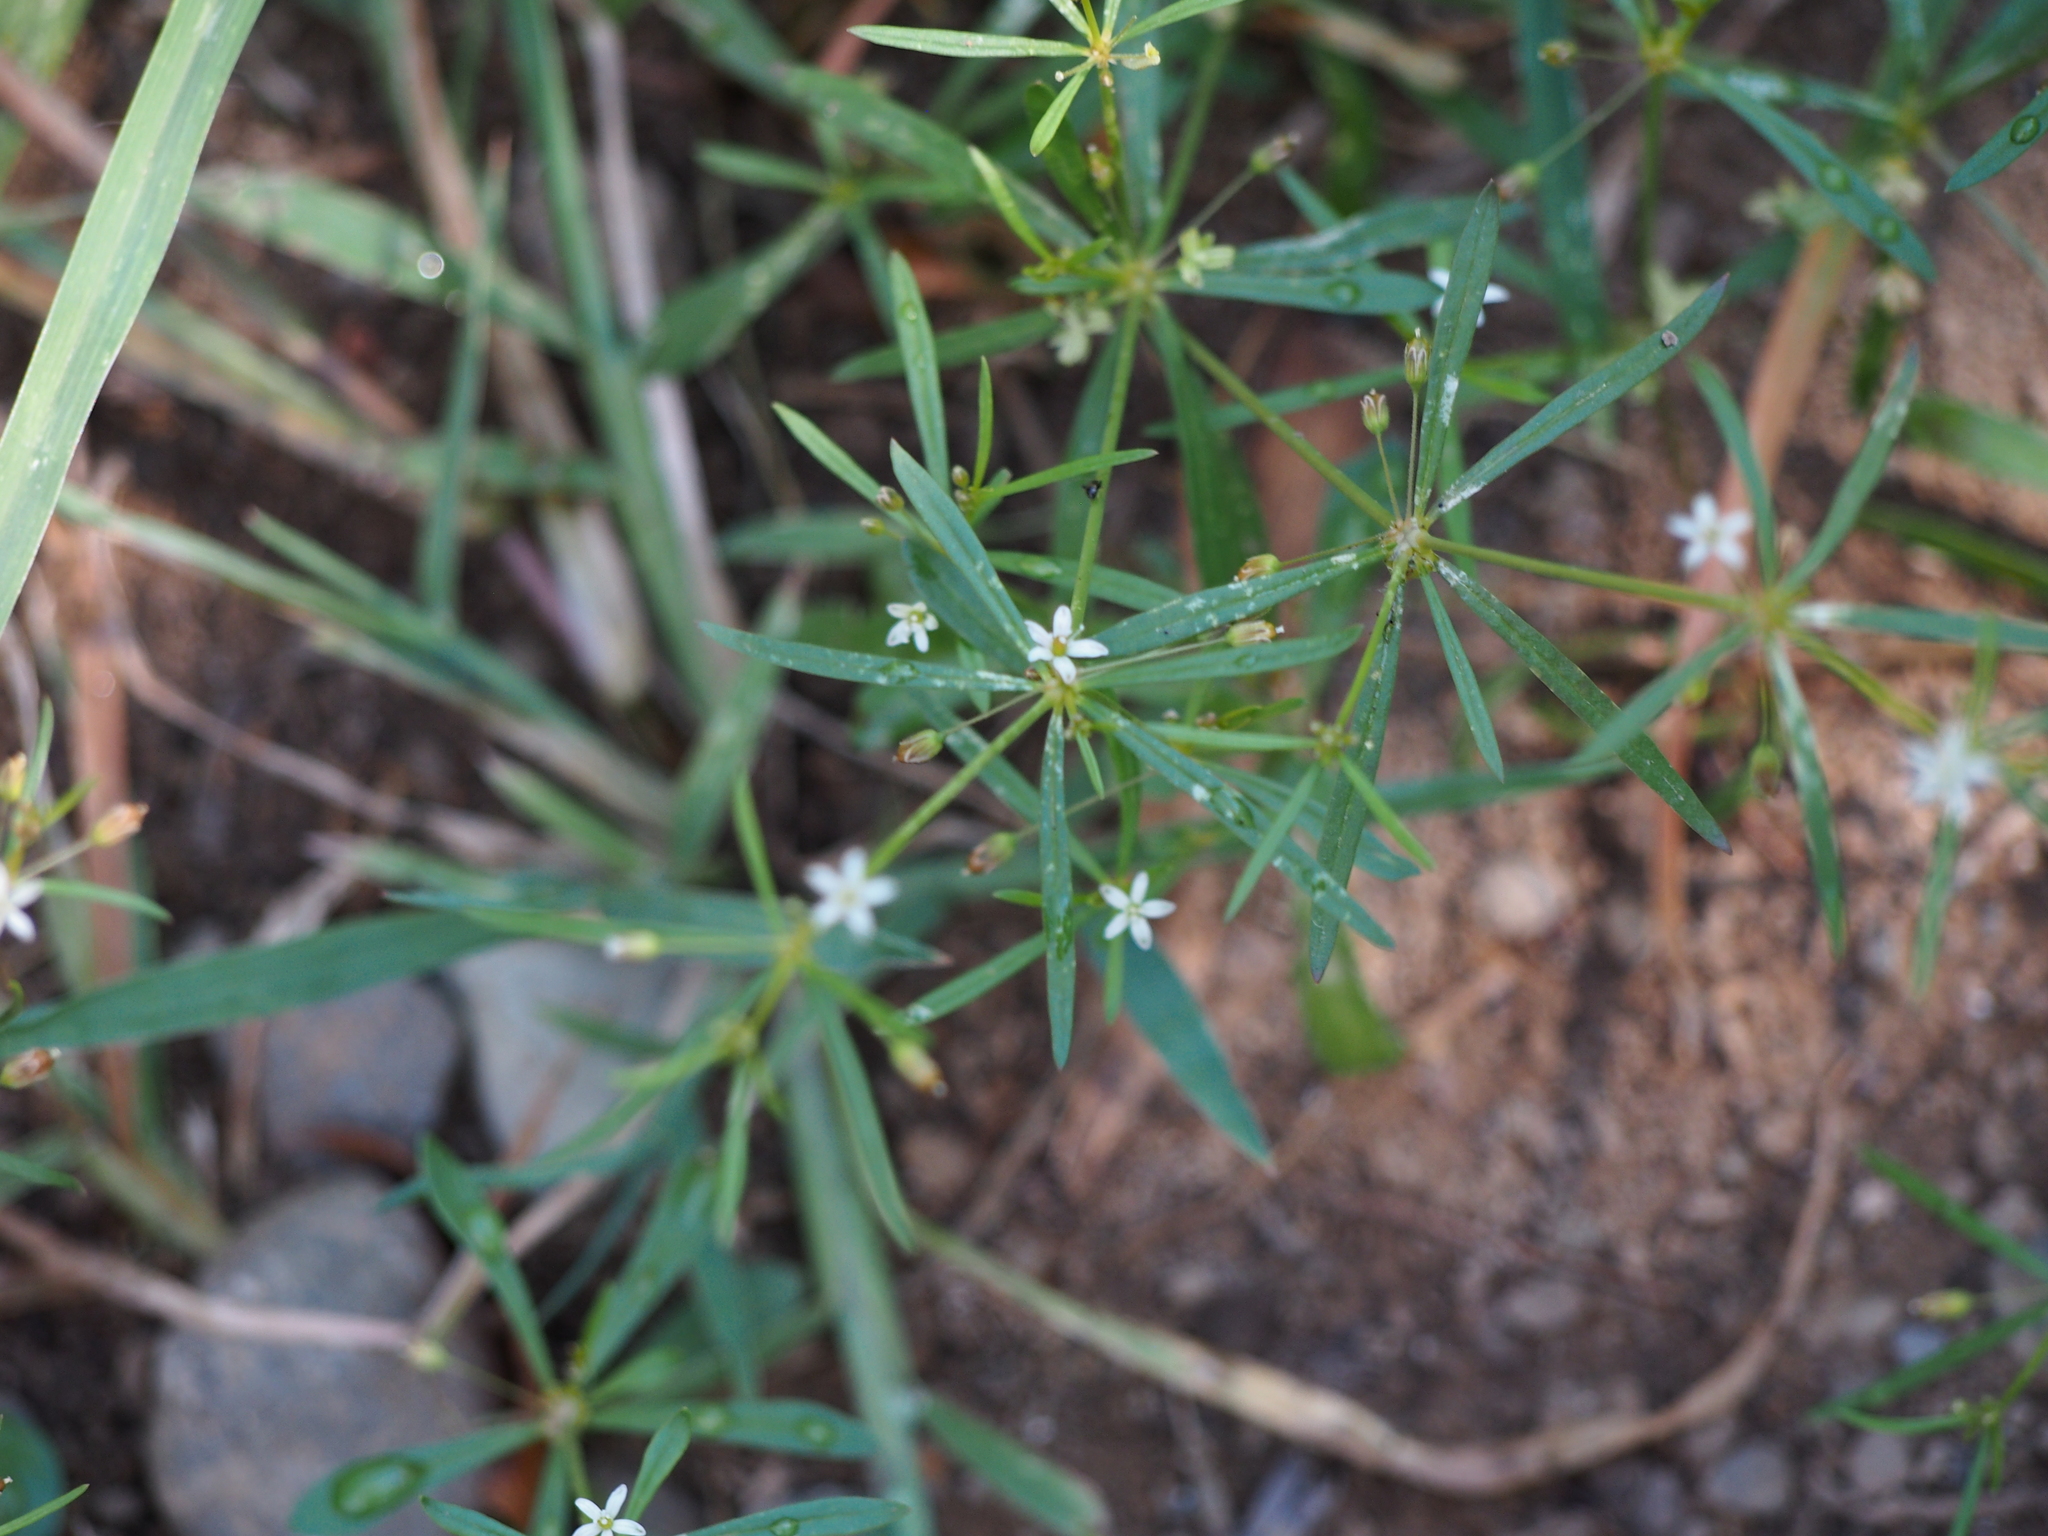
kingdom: Plantae
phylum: Tracheophyta
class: Magnoliopsida
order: Caryophyllales
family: Molluginaceae
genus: Mollugo
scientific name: Mollugo verticillata
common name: Green carpetweed
